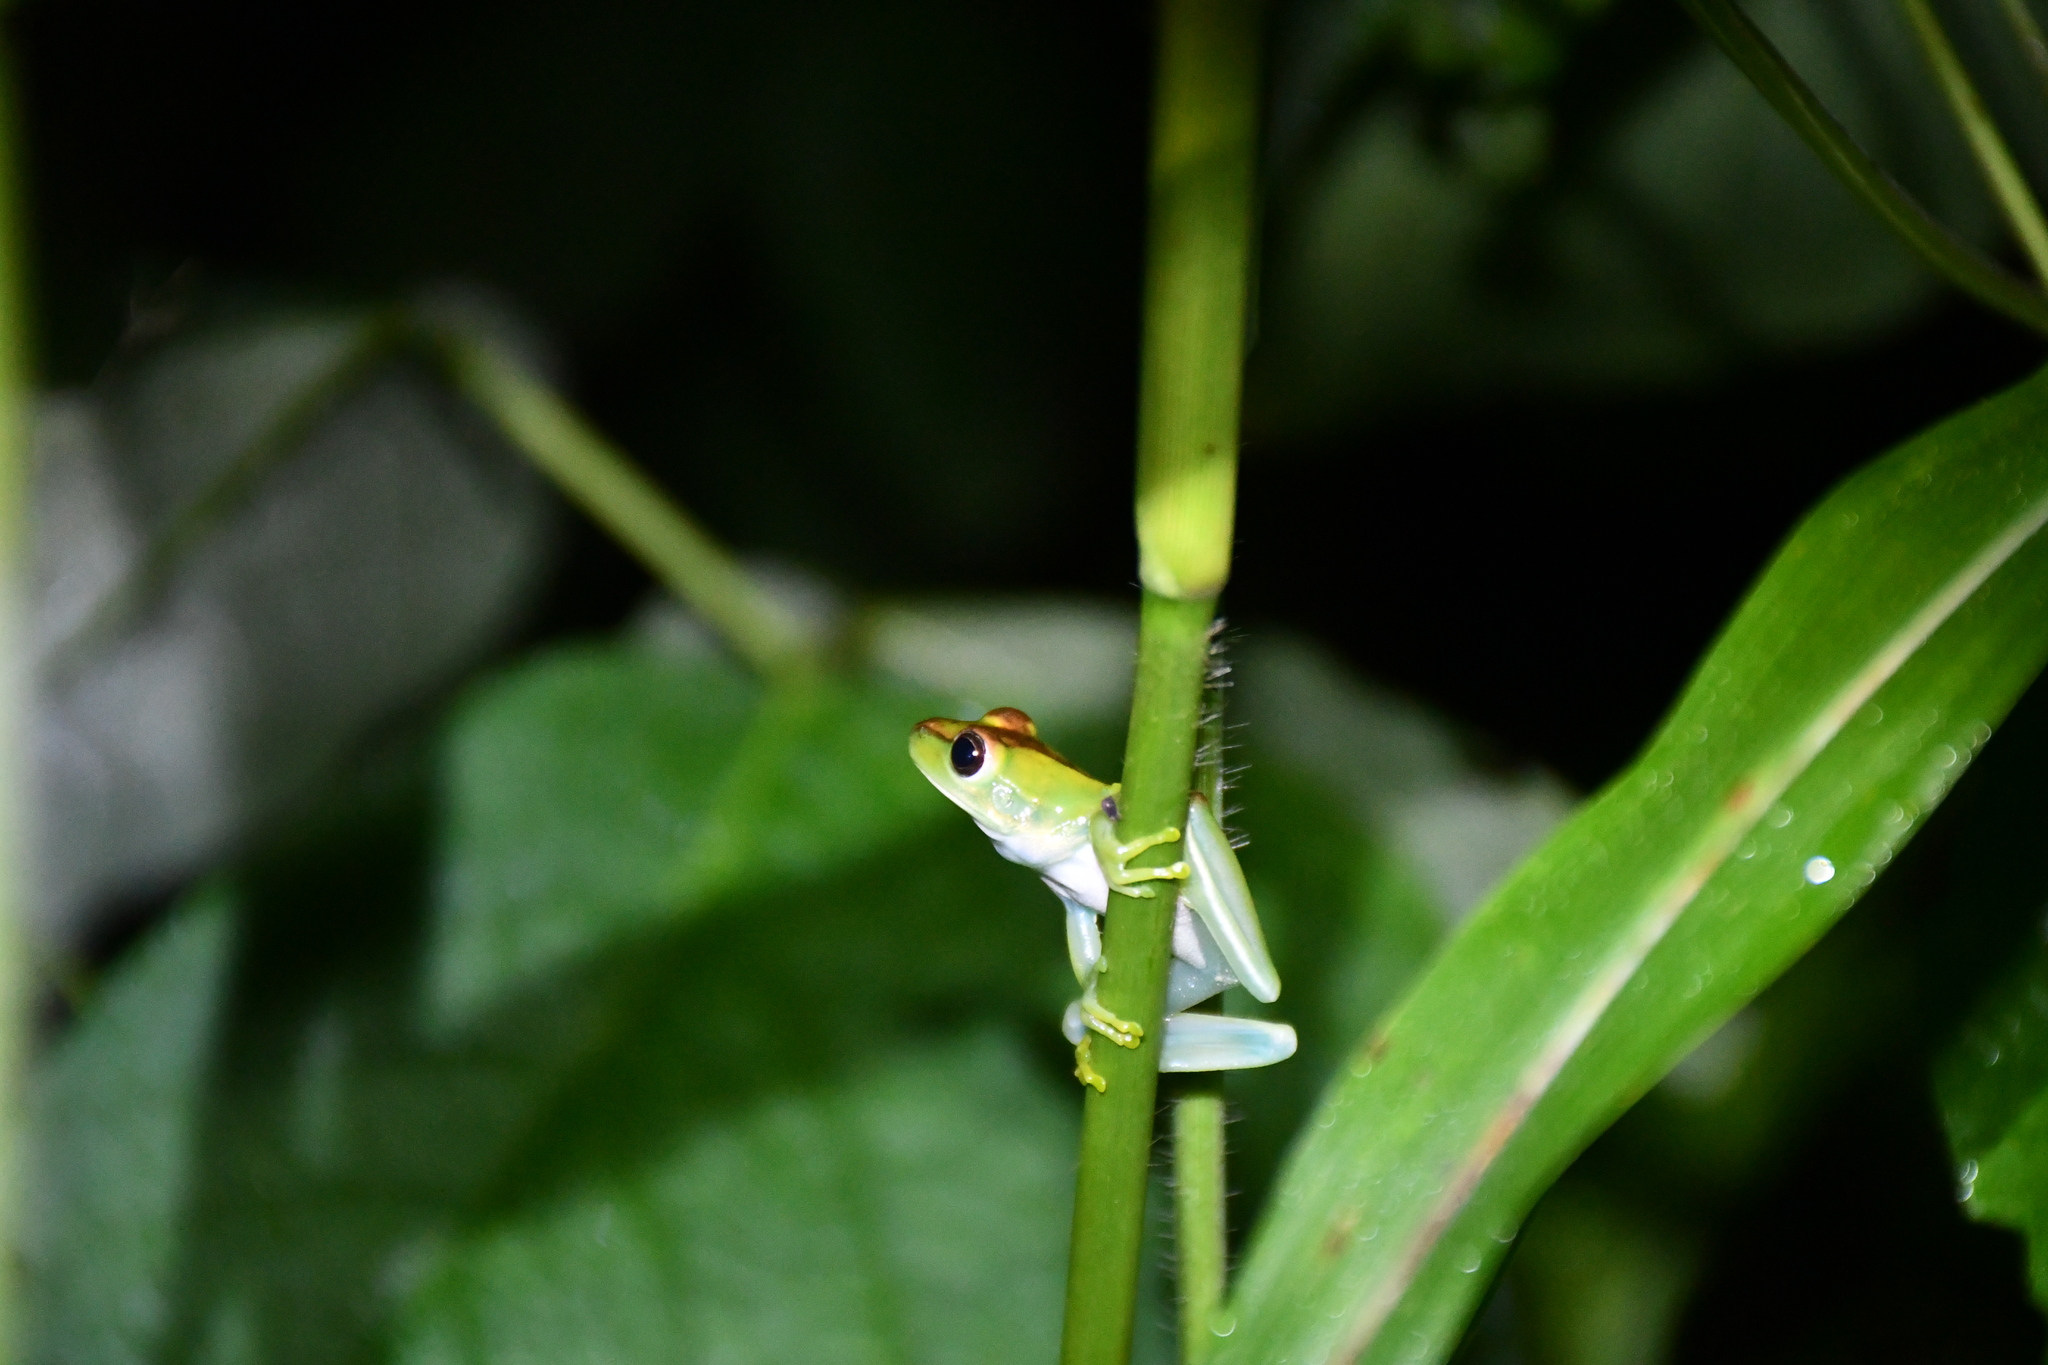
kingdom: Animalia
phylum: Chordata
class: Amphibia
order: Anura
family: Hylidae
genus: Boana
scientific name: Boana raniceps
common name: Chaco treefrog
